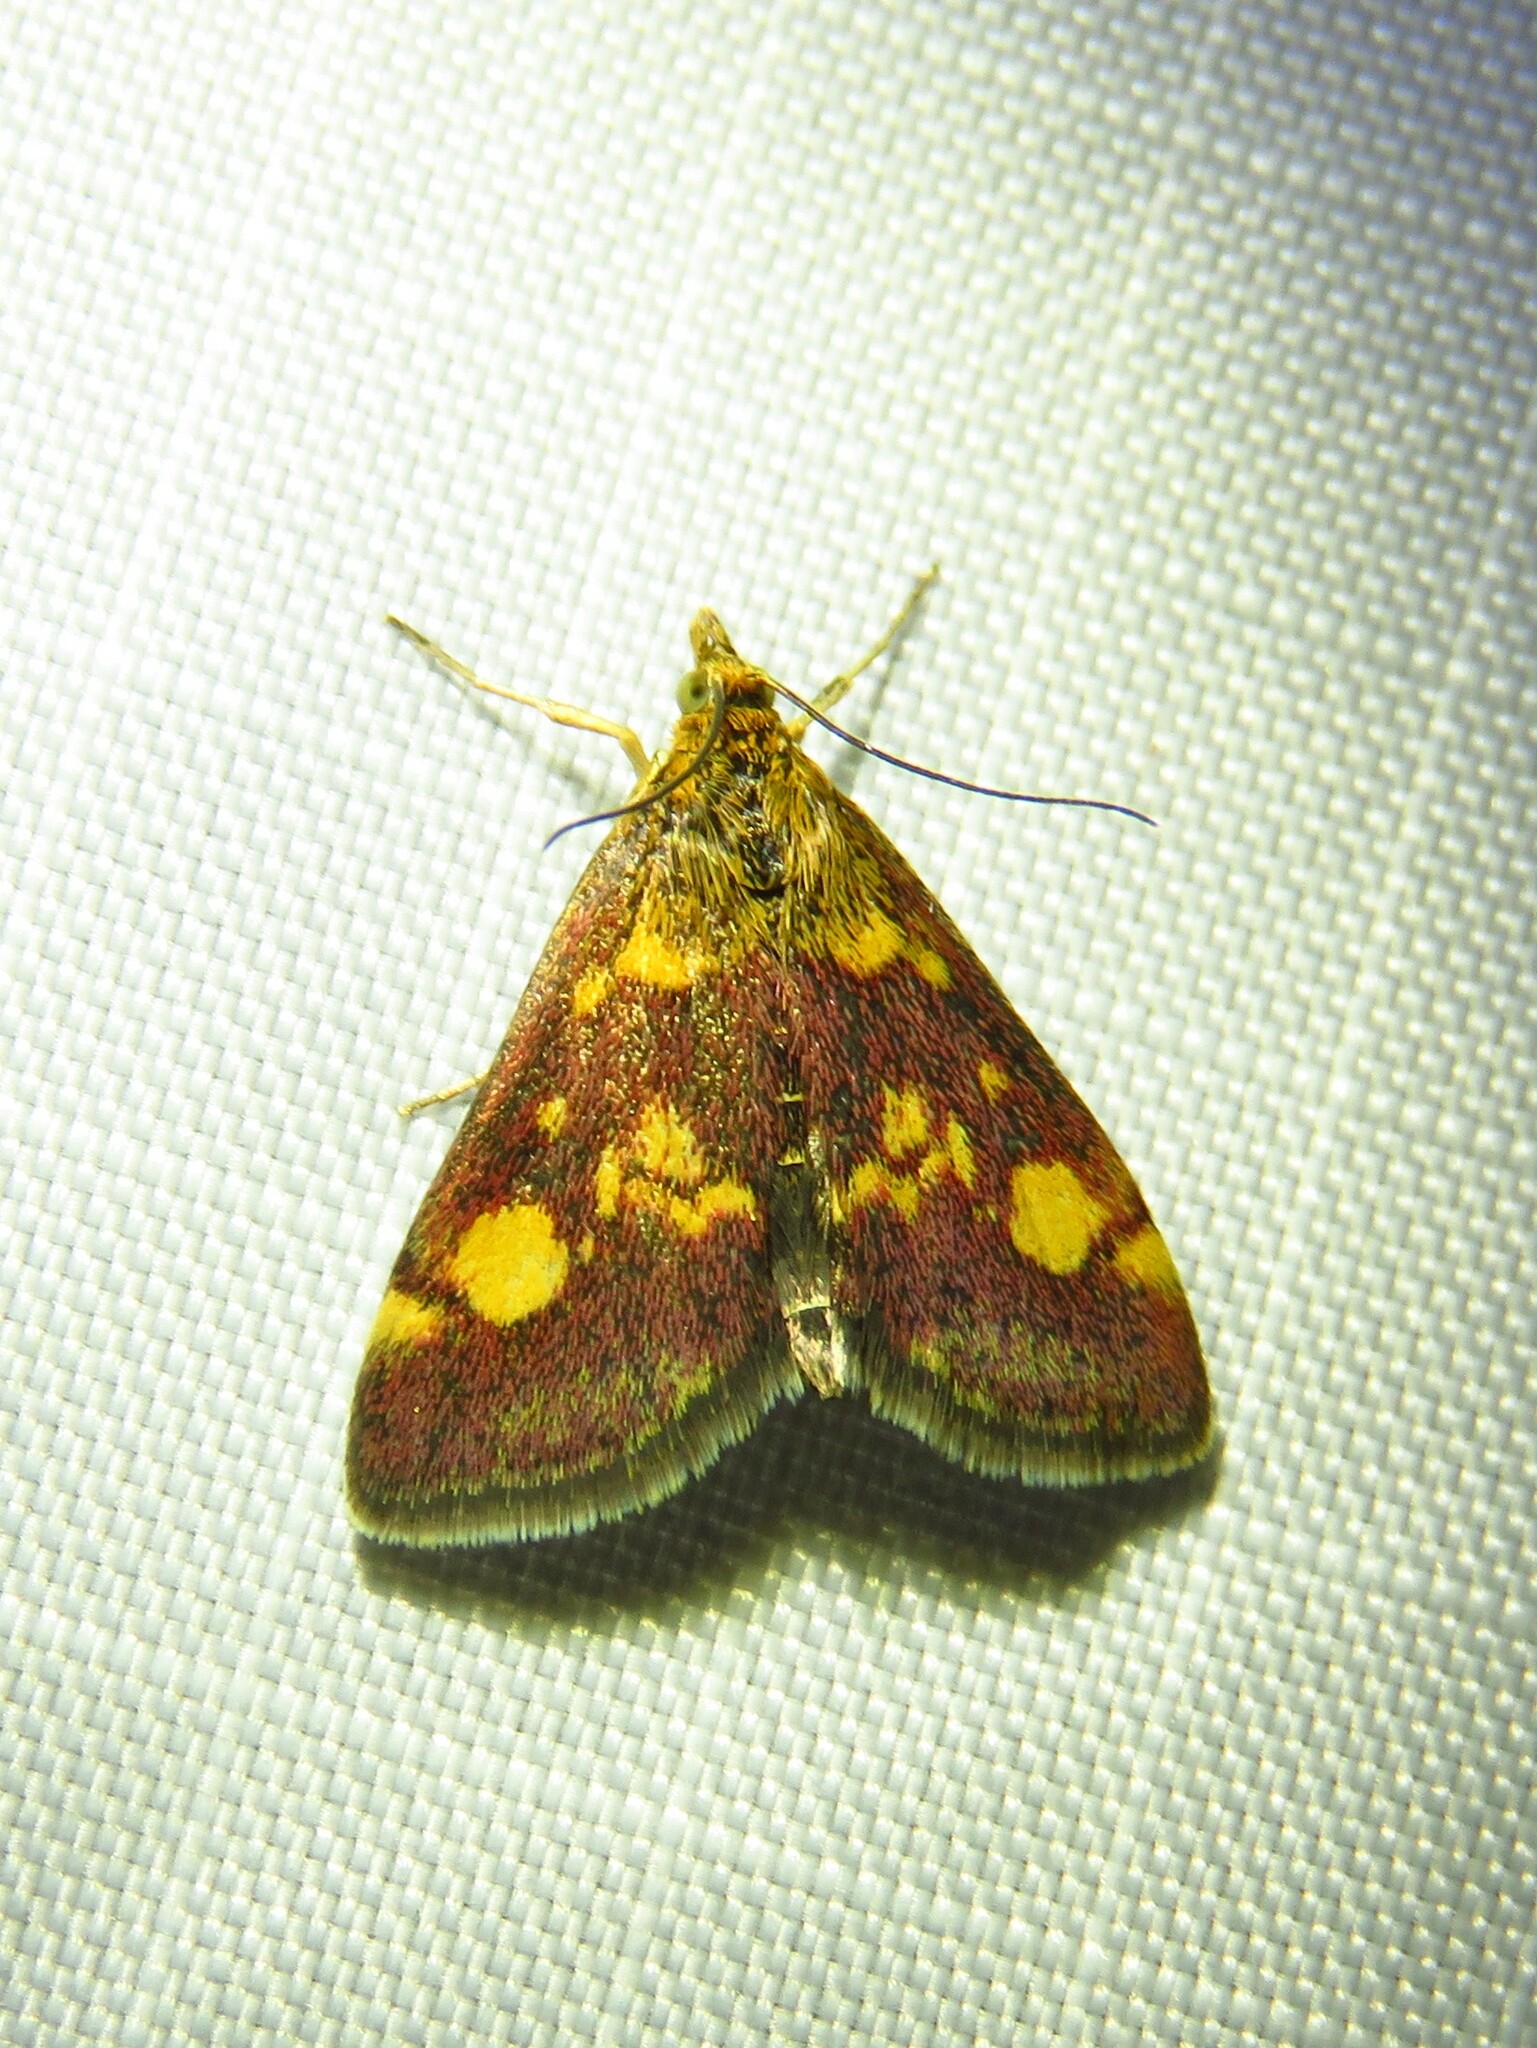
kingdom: Animalia
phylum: Arthropoda
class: Insecta
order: Lepidoptera
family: Crambidae
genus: Pyrausta
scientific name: Pyrausta aurata
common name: Small purple & gold
